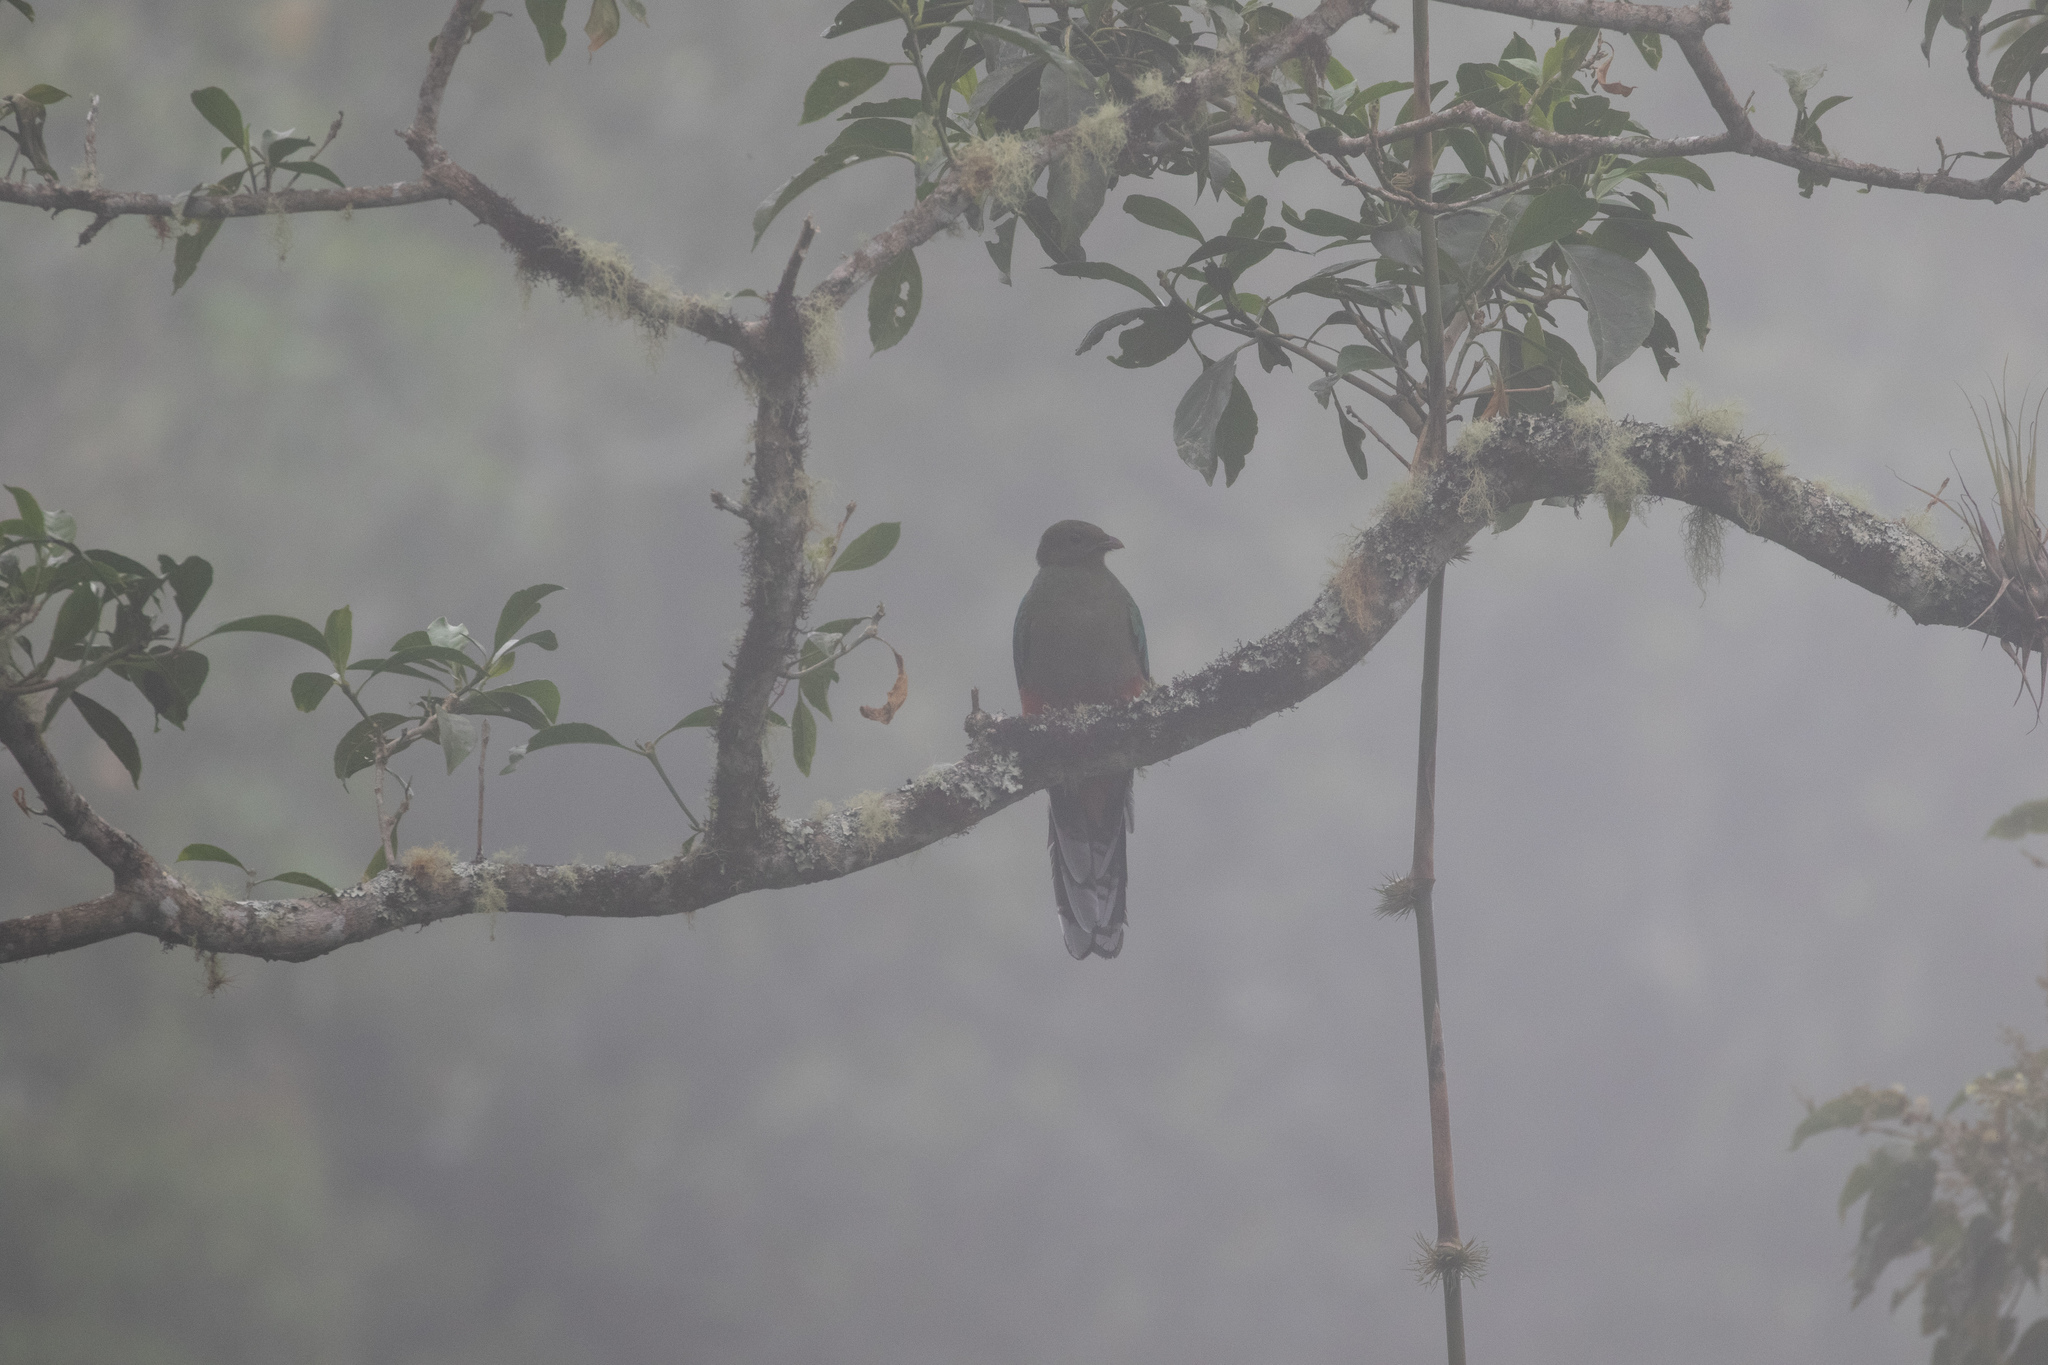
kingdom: Animalia
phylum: Chordata
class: Aves
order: Trogoniformes
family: Trogonidae
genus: Pharomachrus
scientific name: Pharomachrus fulgidus
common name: White-tipped quetzal
